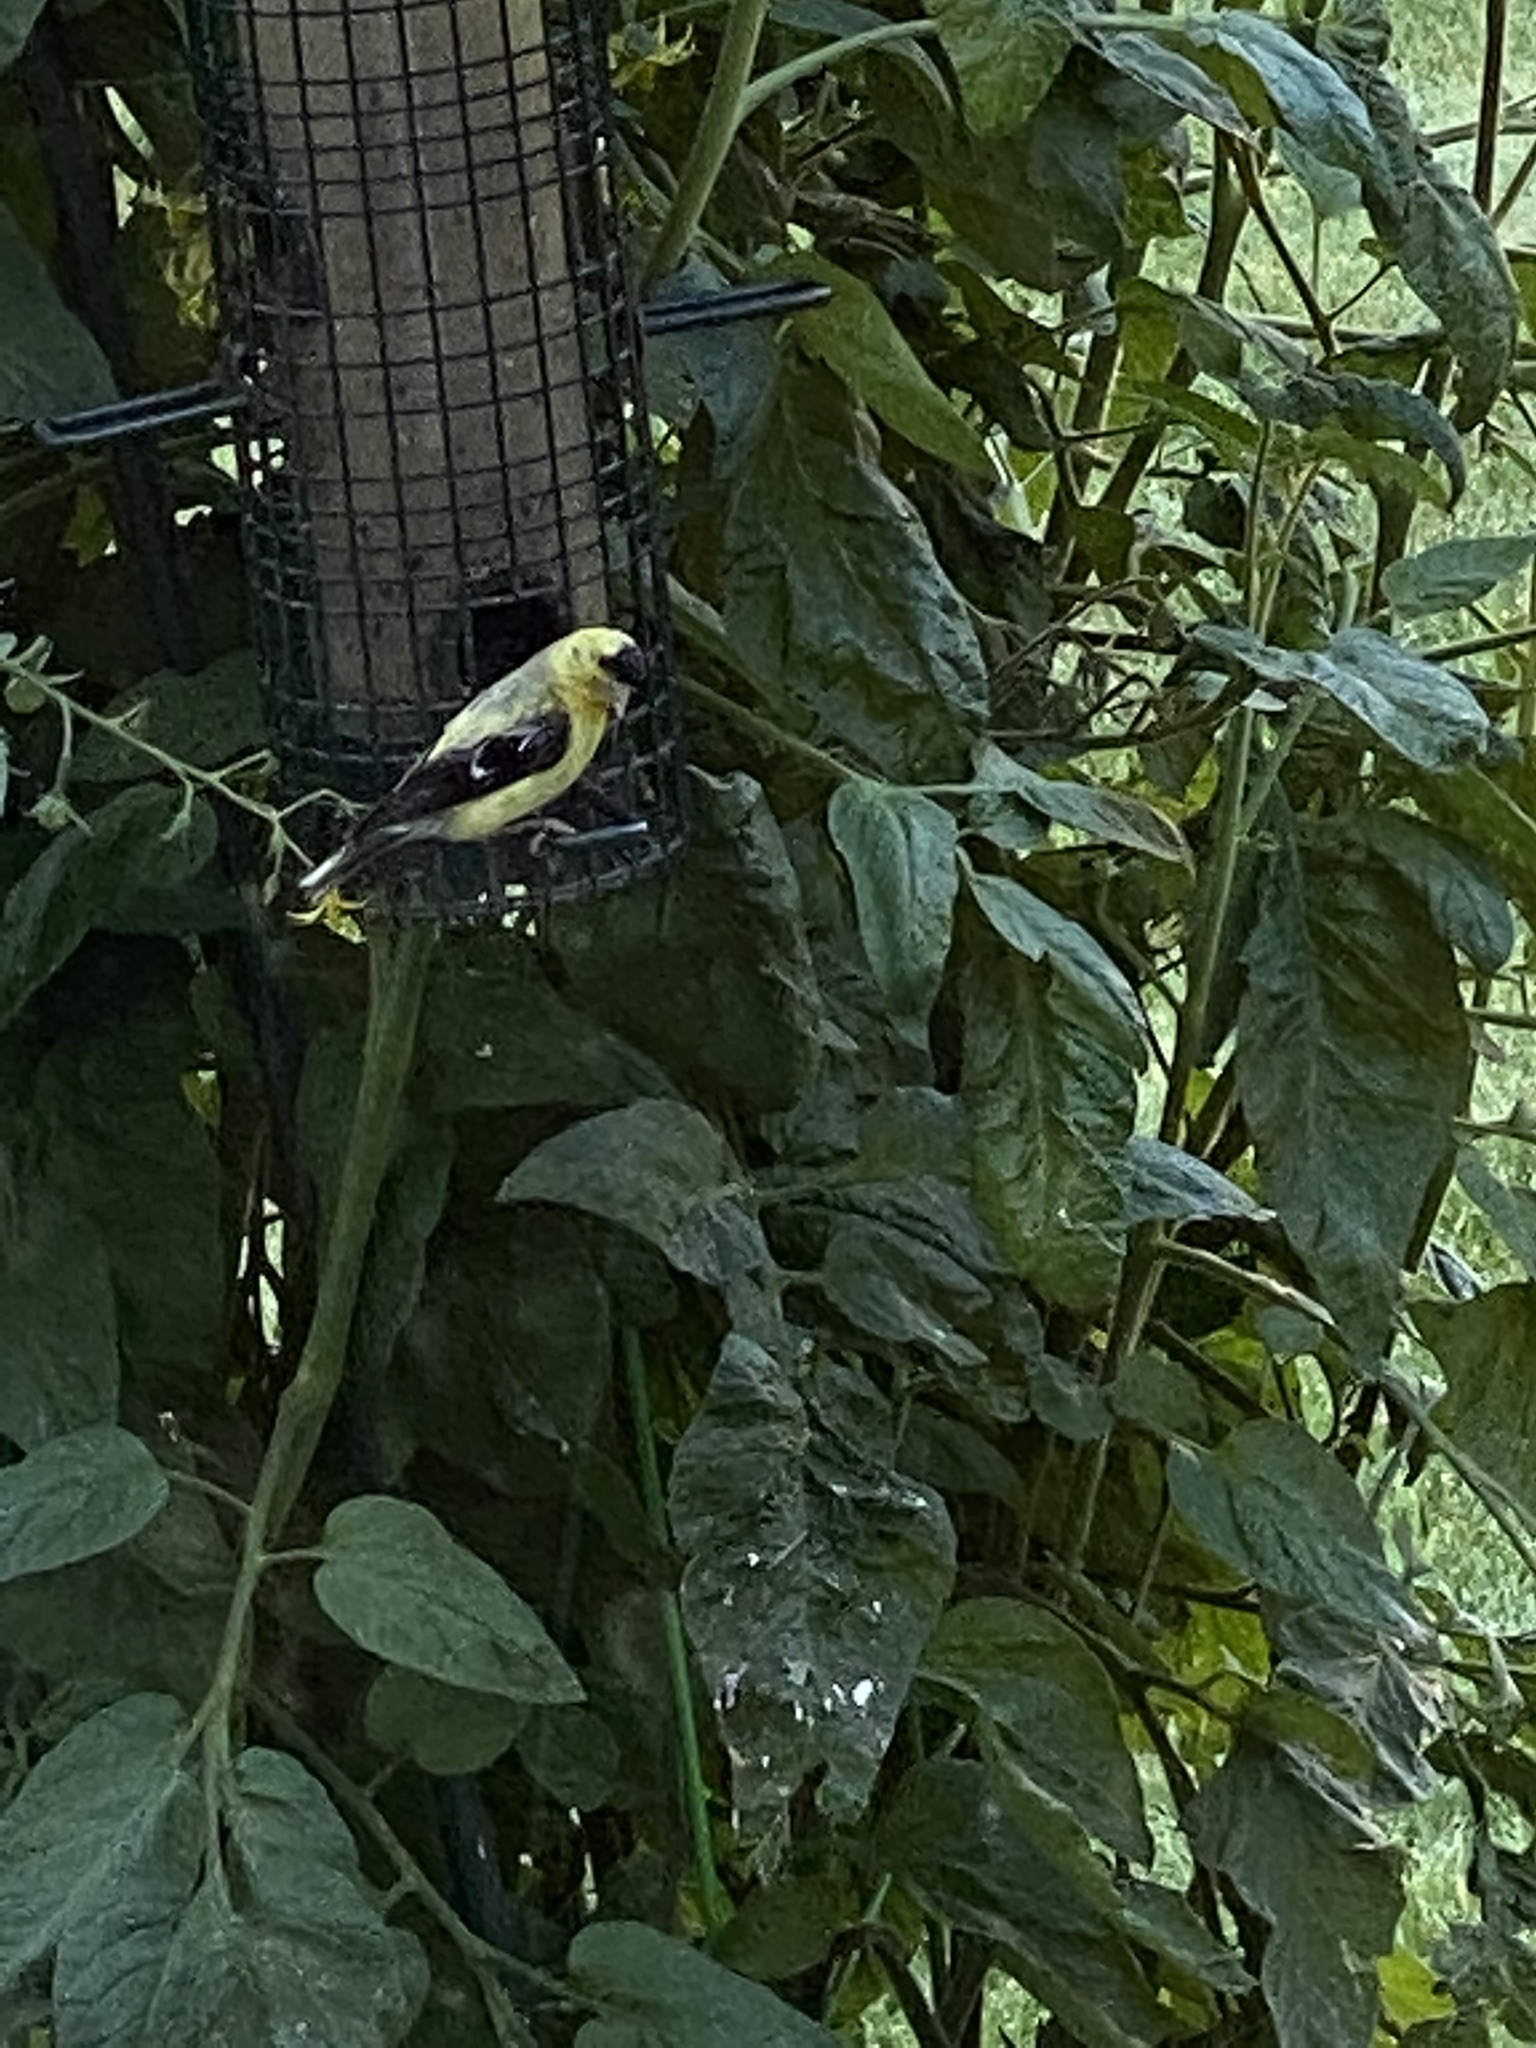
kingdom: Animalia
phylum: Chordata
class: Aves
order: Passeriformes
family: Fringillidae
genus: Spinus
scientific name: Spinus tristis
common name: American goldfinch
